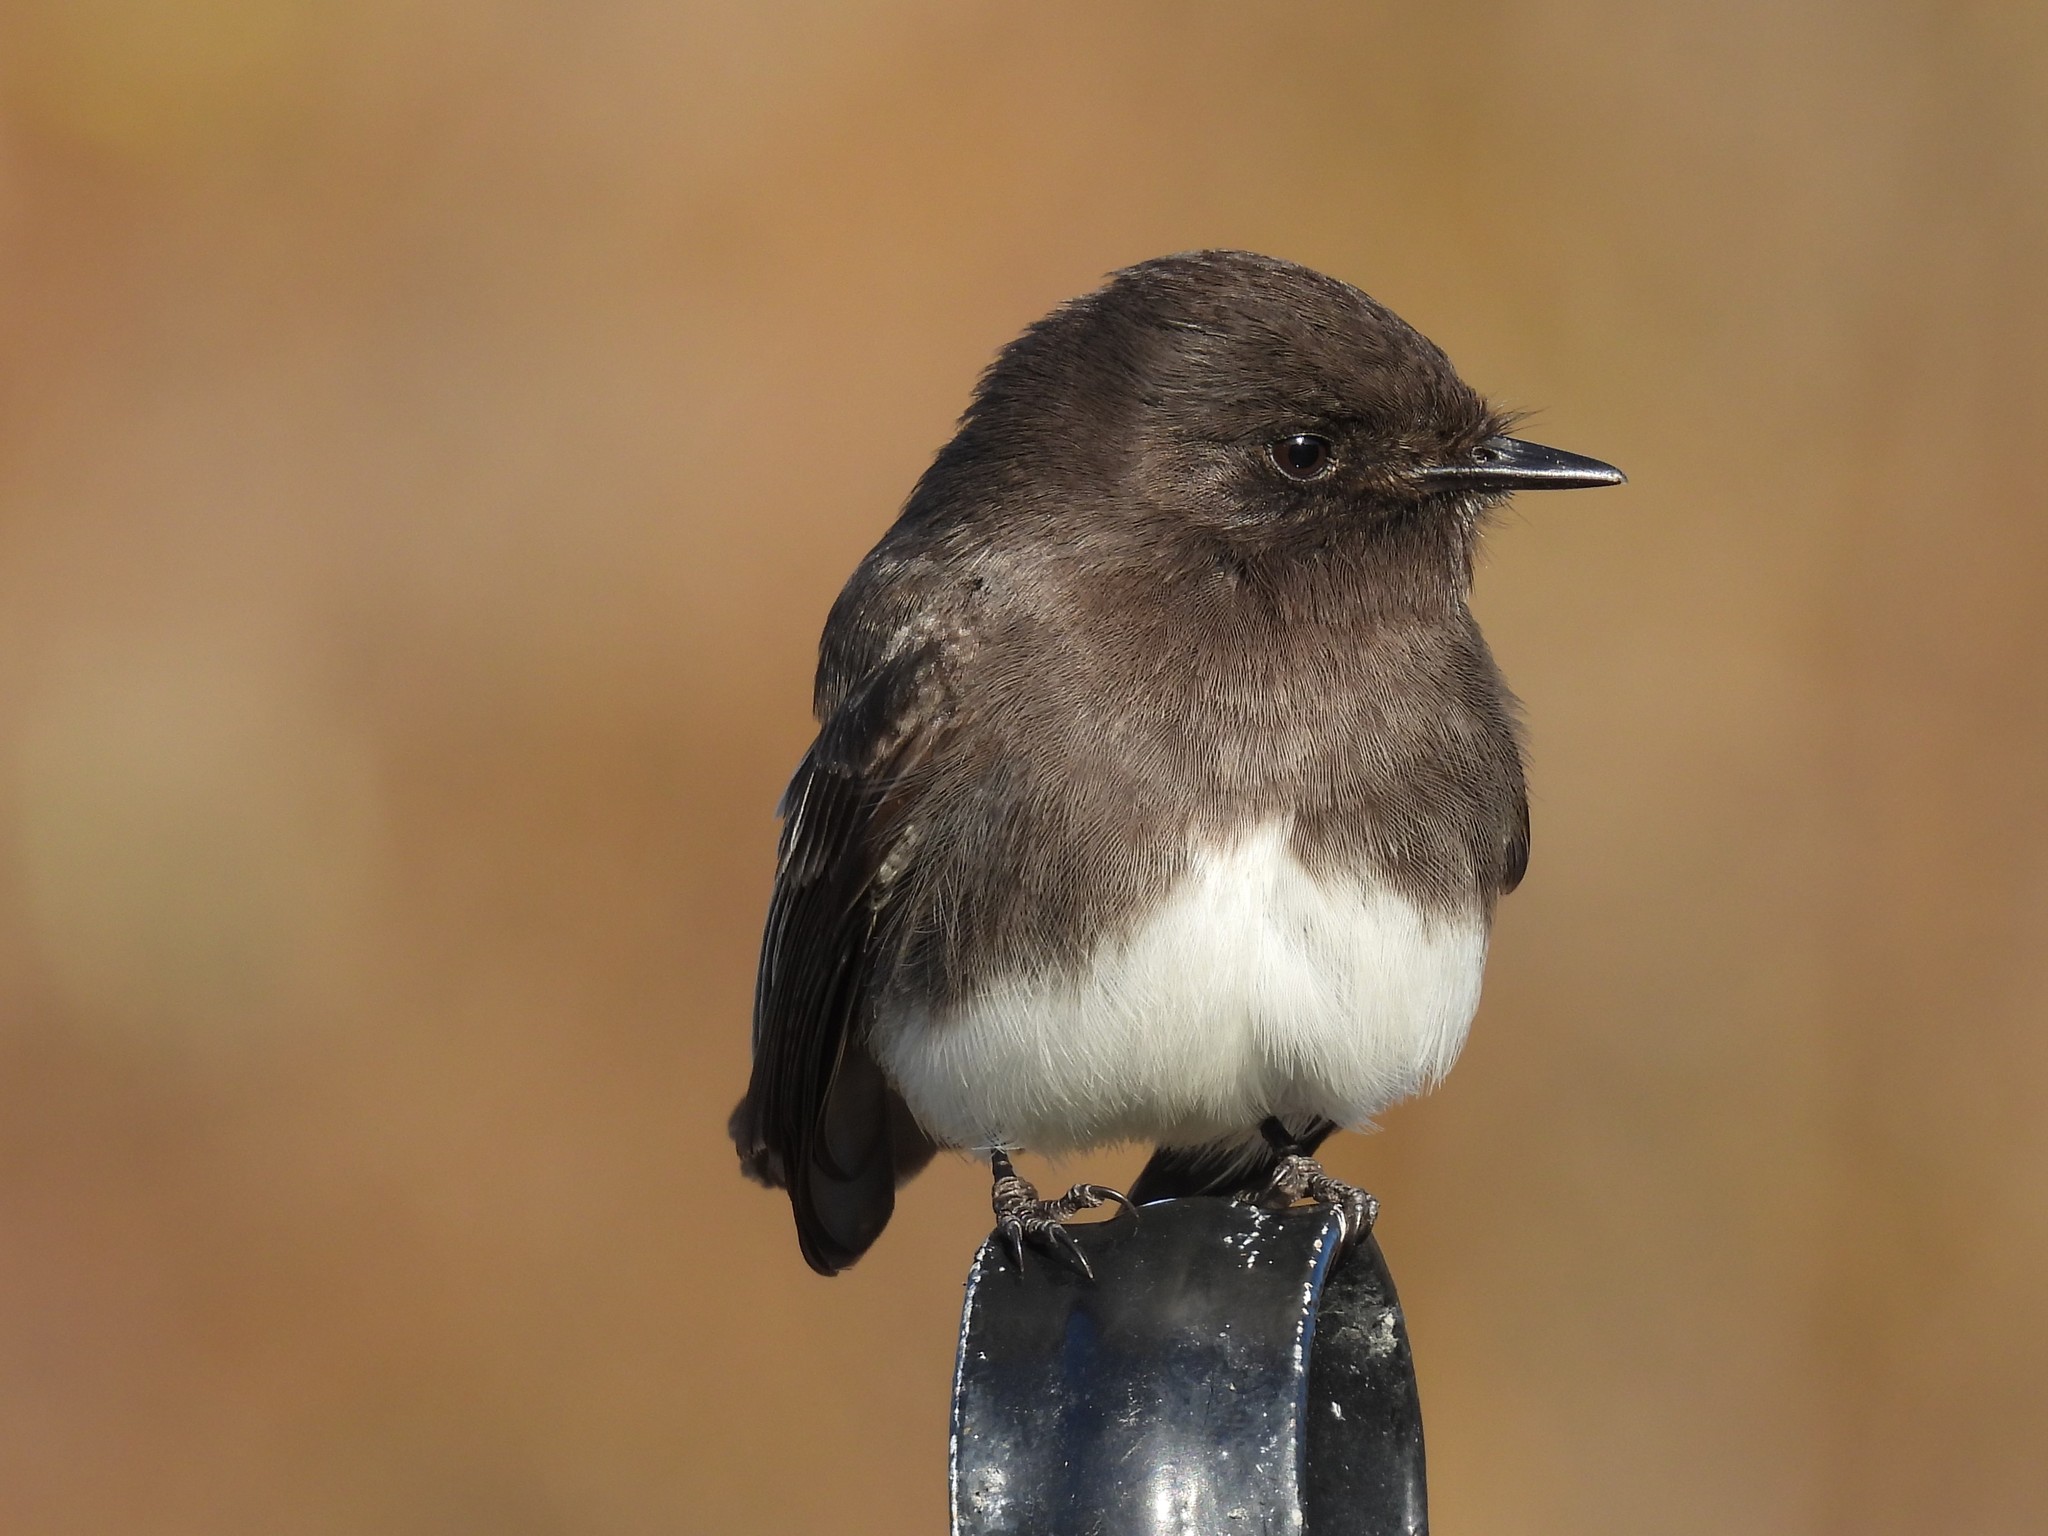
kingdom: Animalia
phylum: Chordata
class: Aves
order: Passeriformes
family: Tyrannidae
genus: Sayornis
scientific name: Sayornis nigricans
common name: Black phoebe
